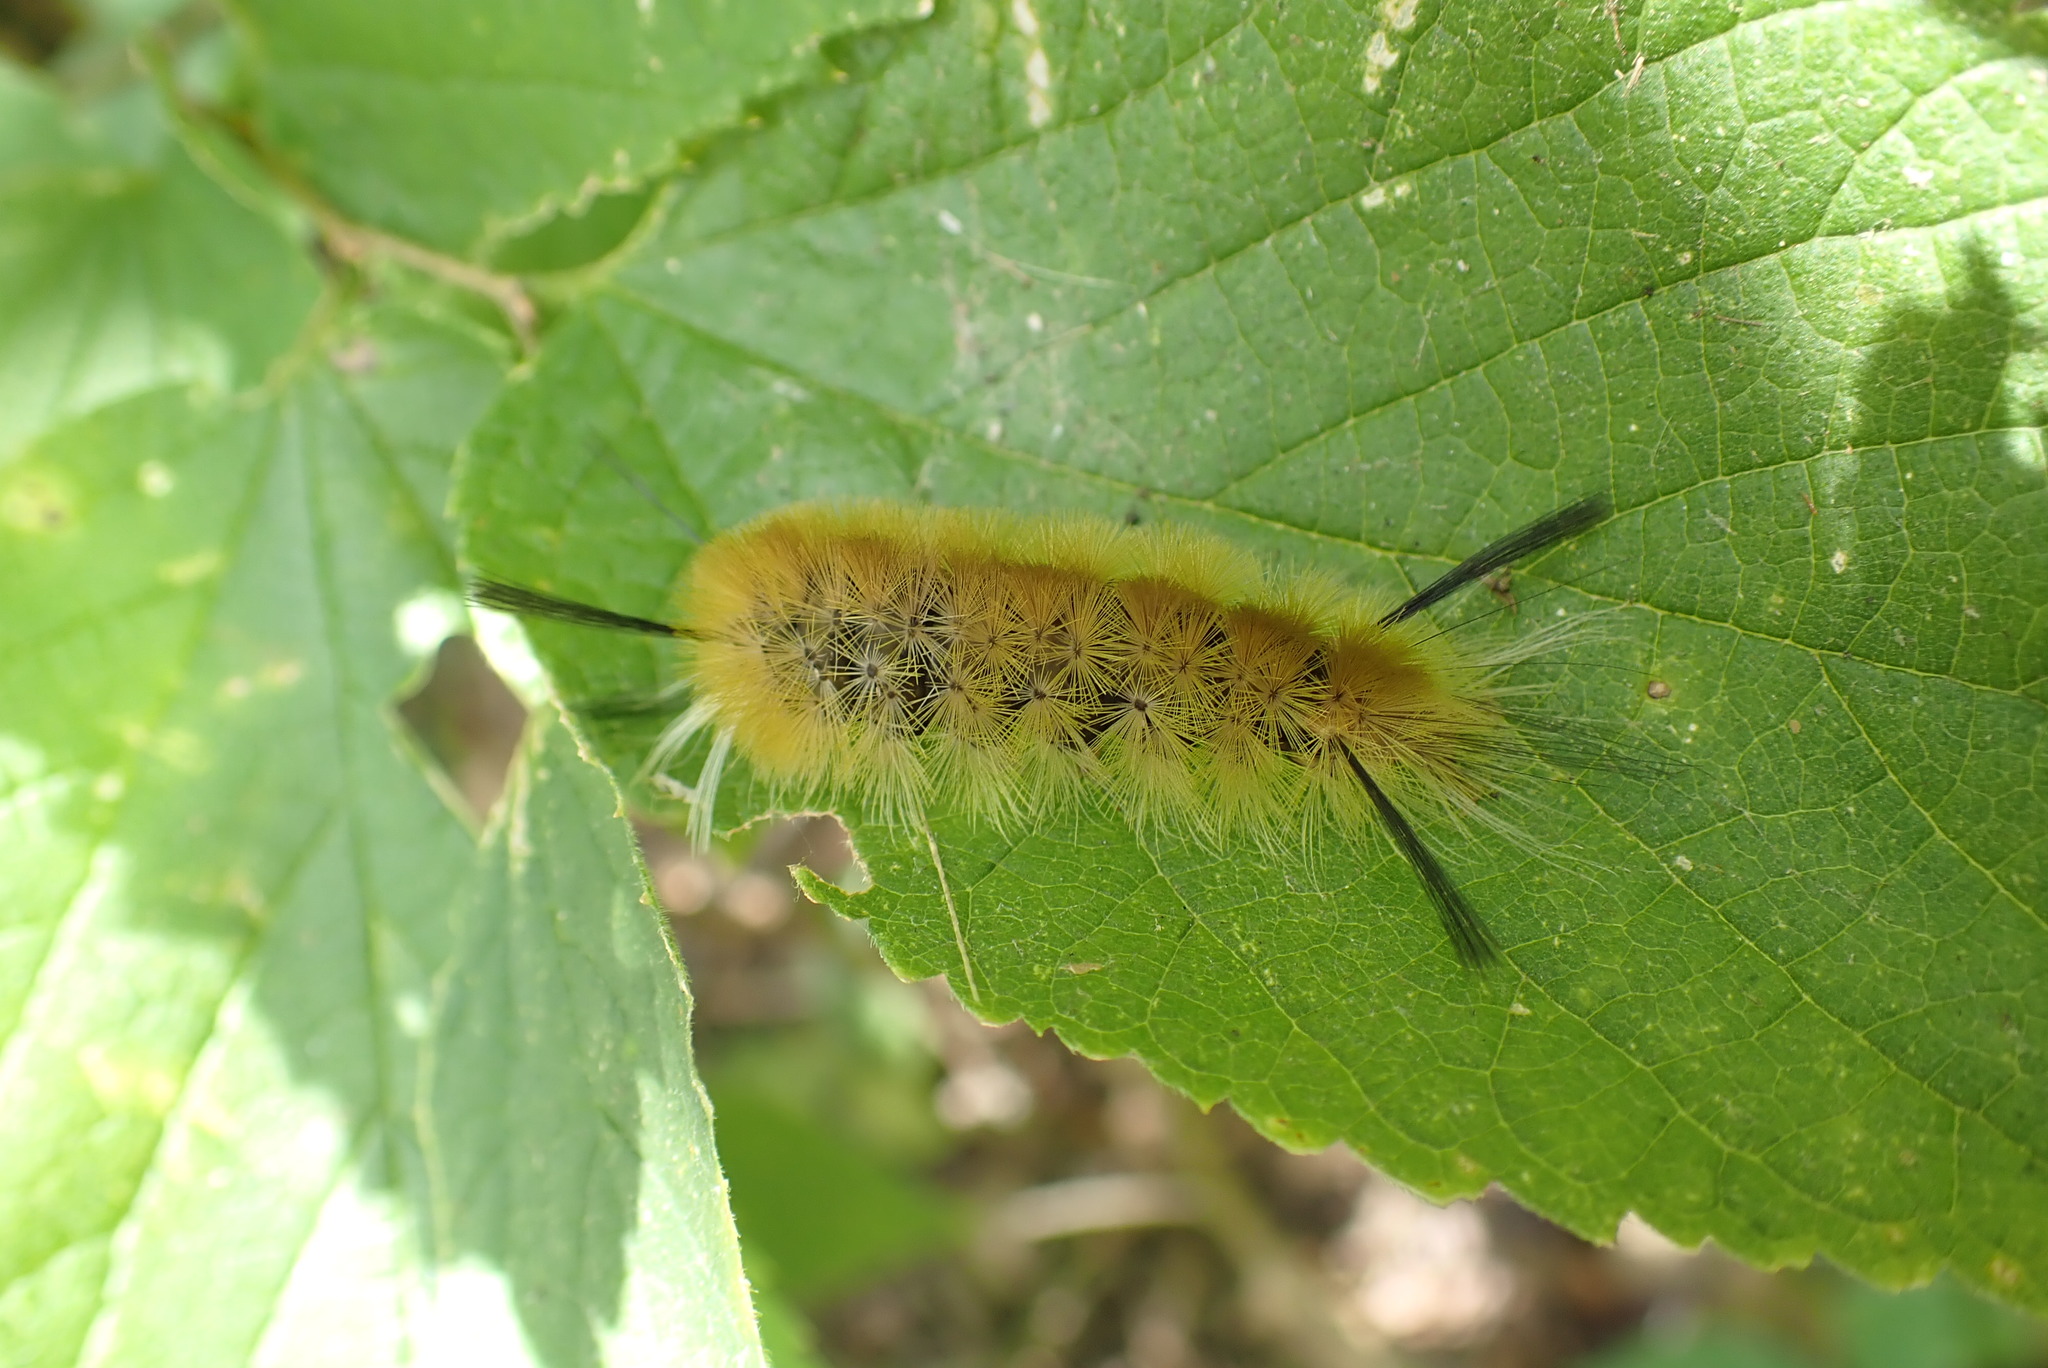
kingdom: Animalia
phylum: Arthropoda
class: Insecta
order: Lepidoptera
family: Erebidae
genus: Halysidota
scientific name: Halysidota tessellaris
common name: Banded tussock moth
